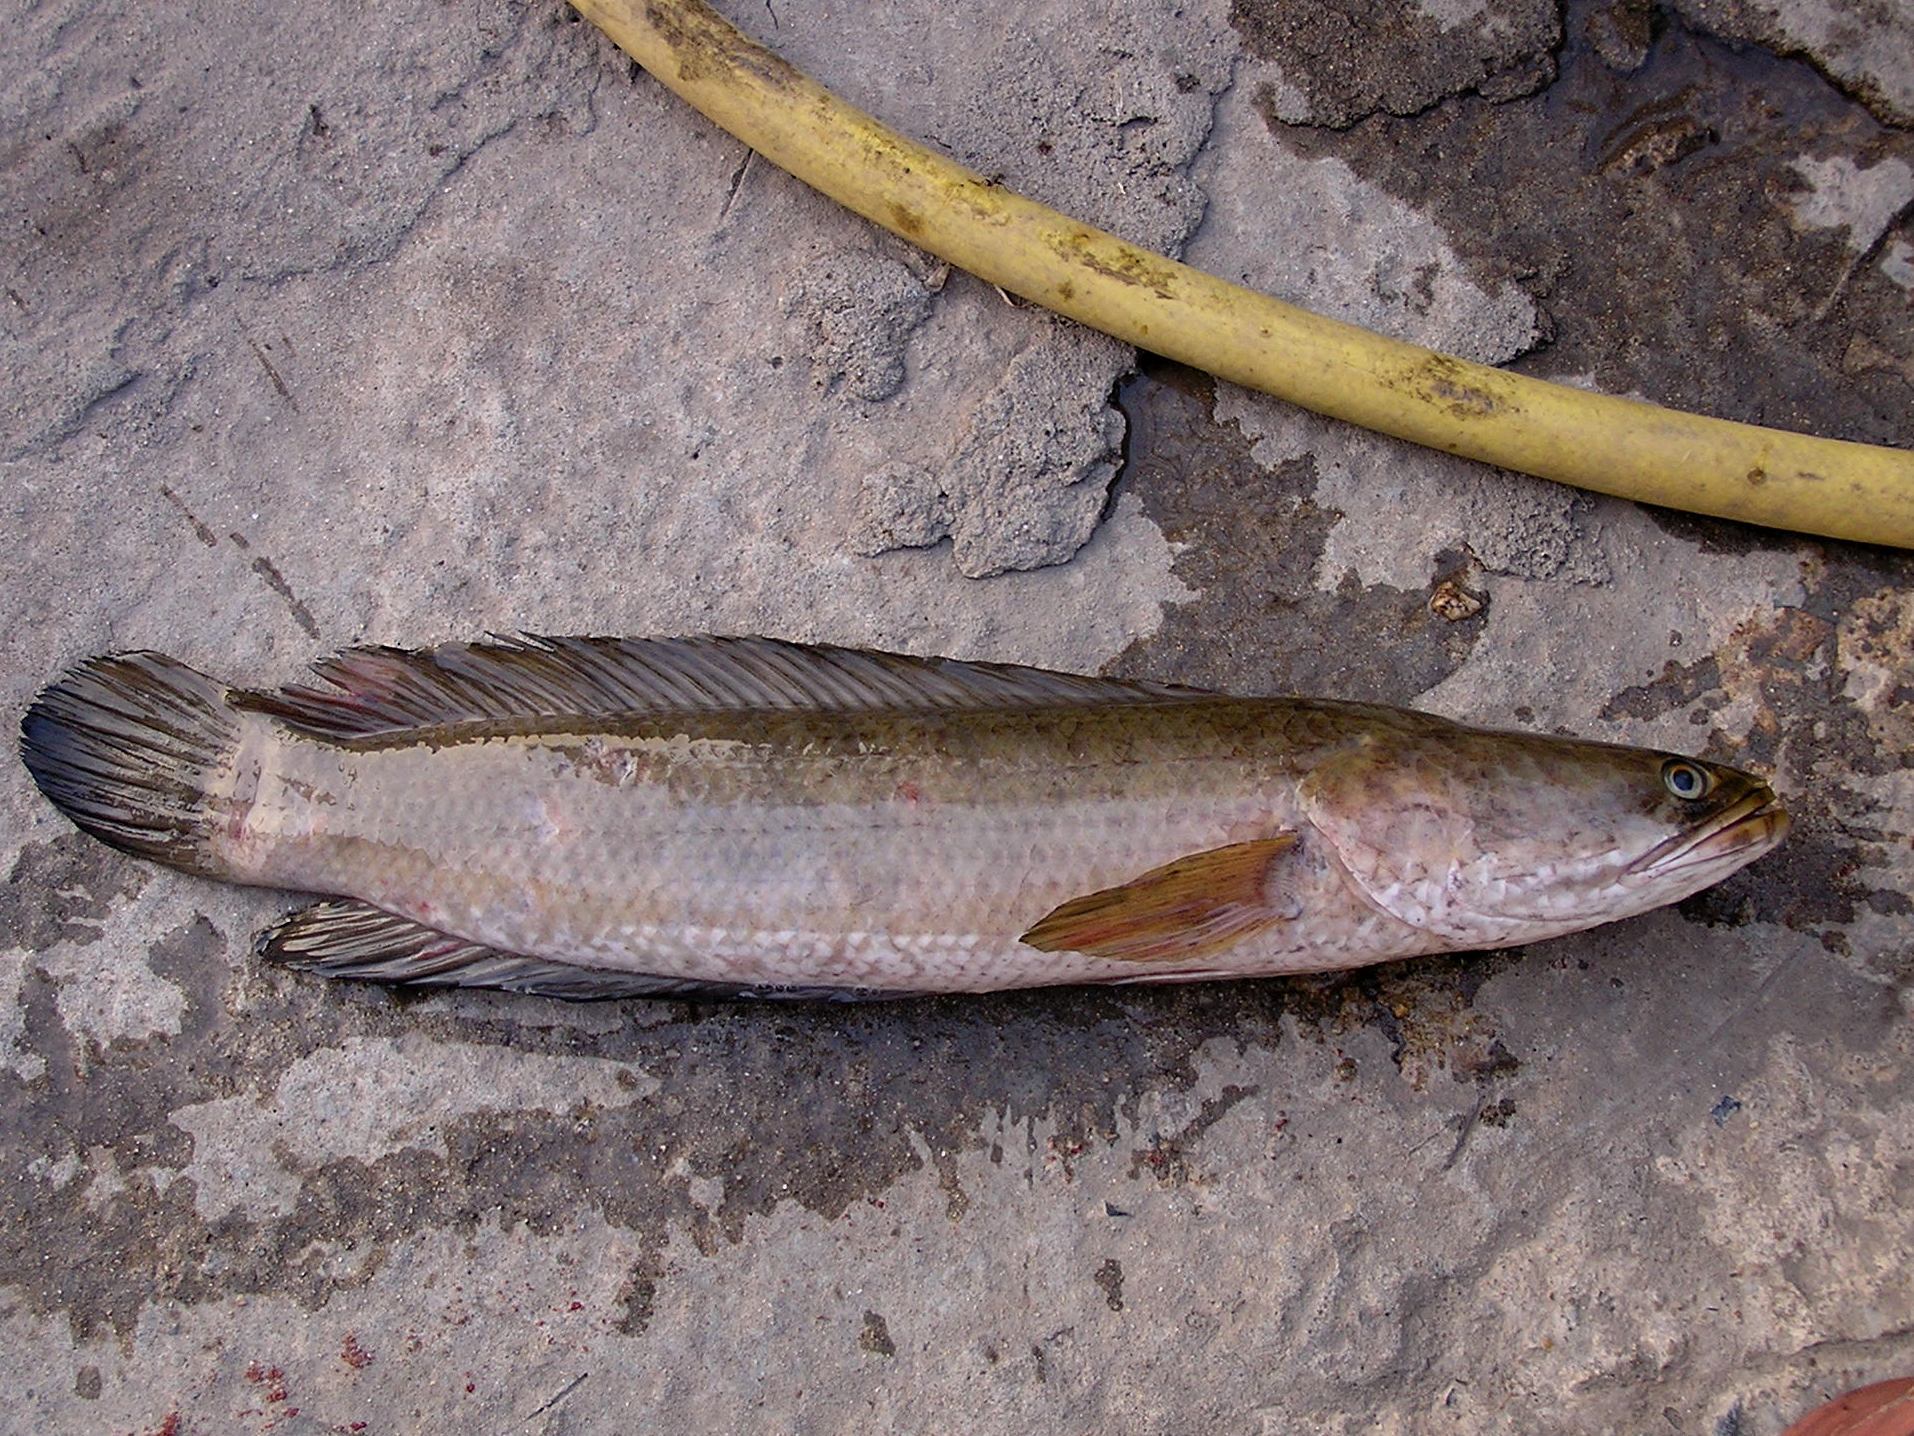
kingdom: Animalia
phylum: Chordata
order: Perciformes
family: Channidae
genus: Channa
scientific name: Channa striata
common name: Striped snakehead
